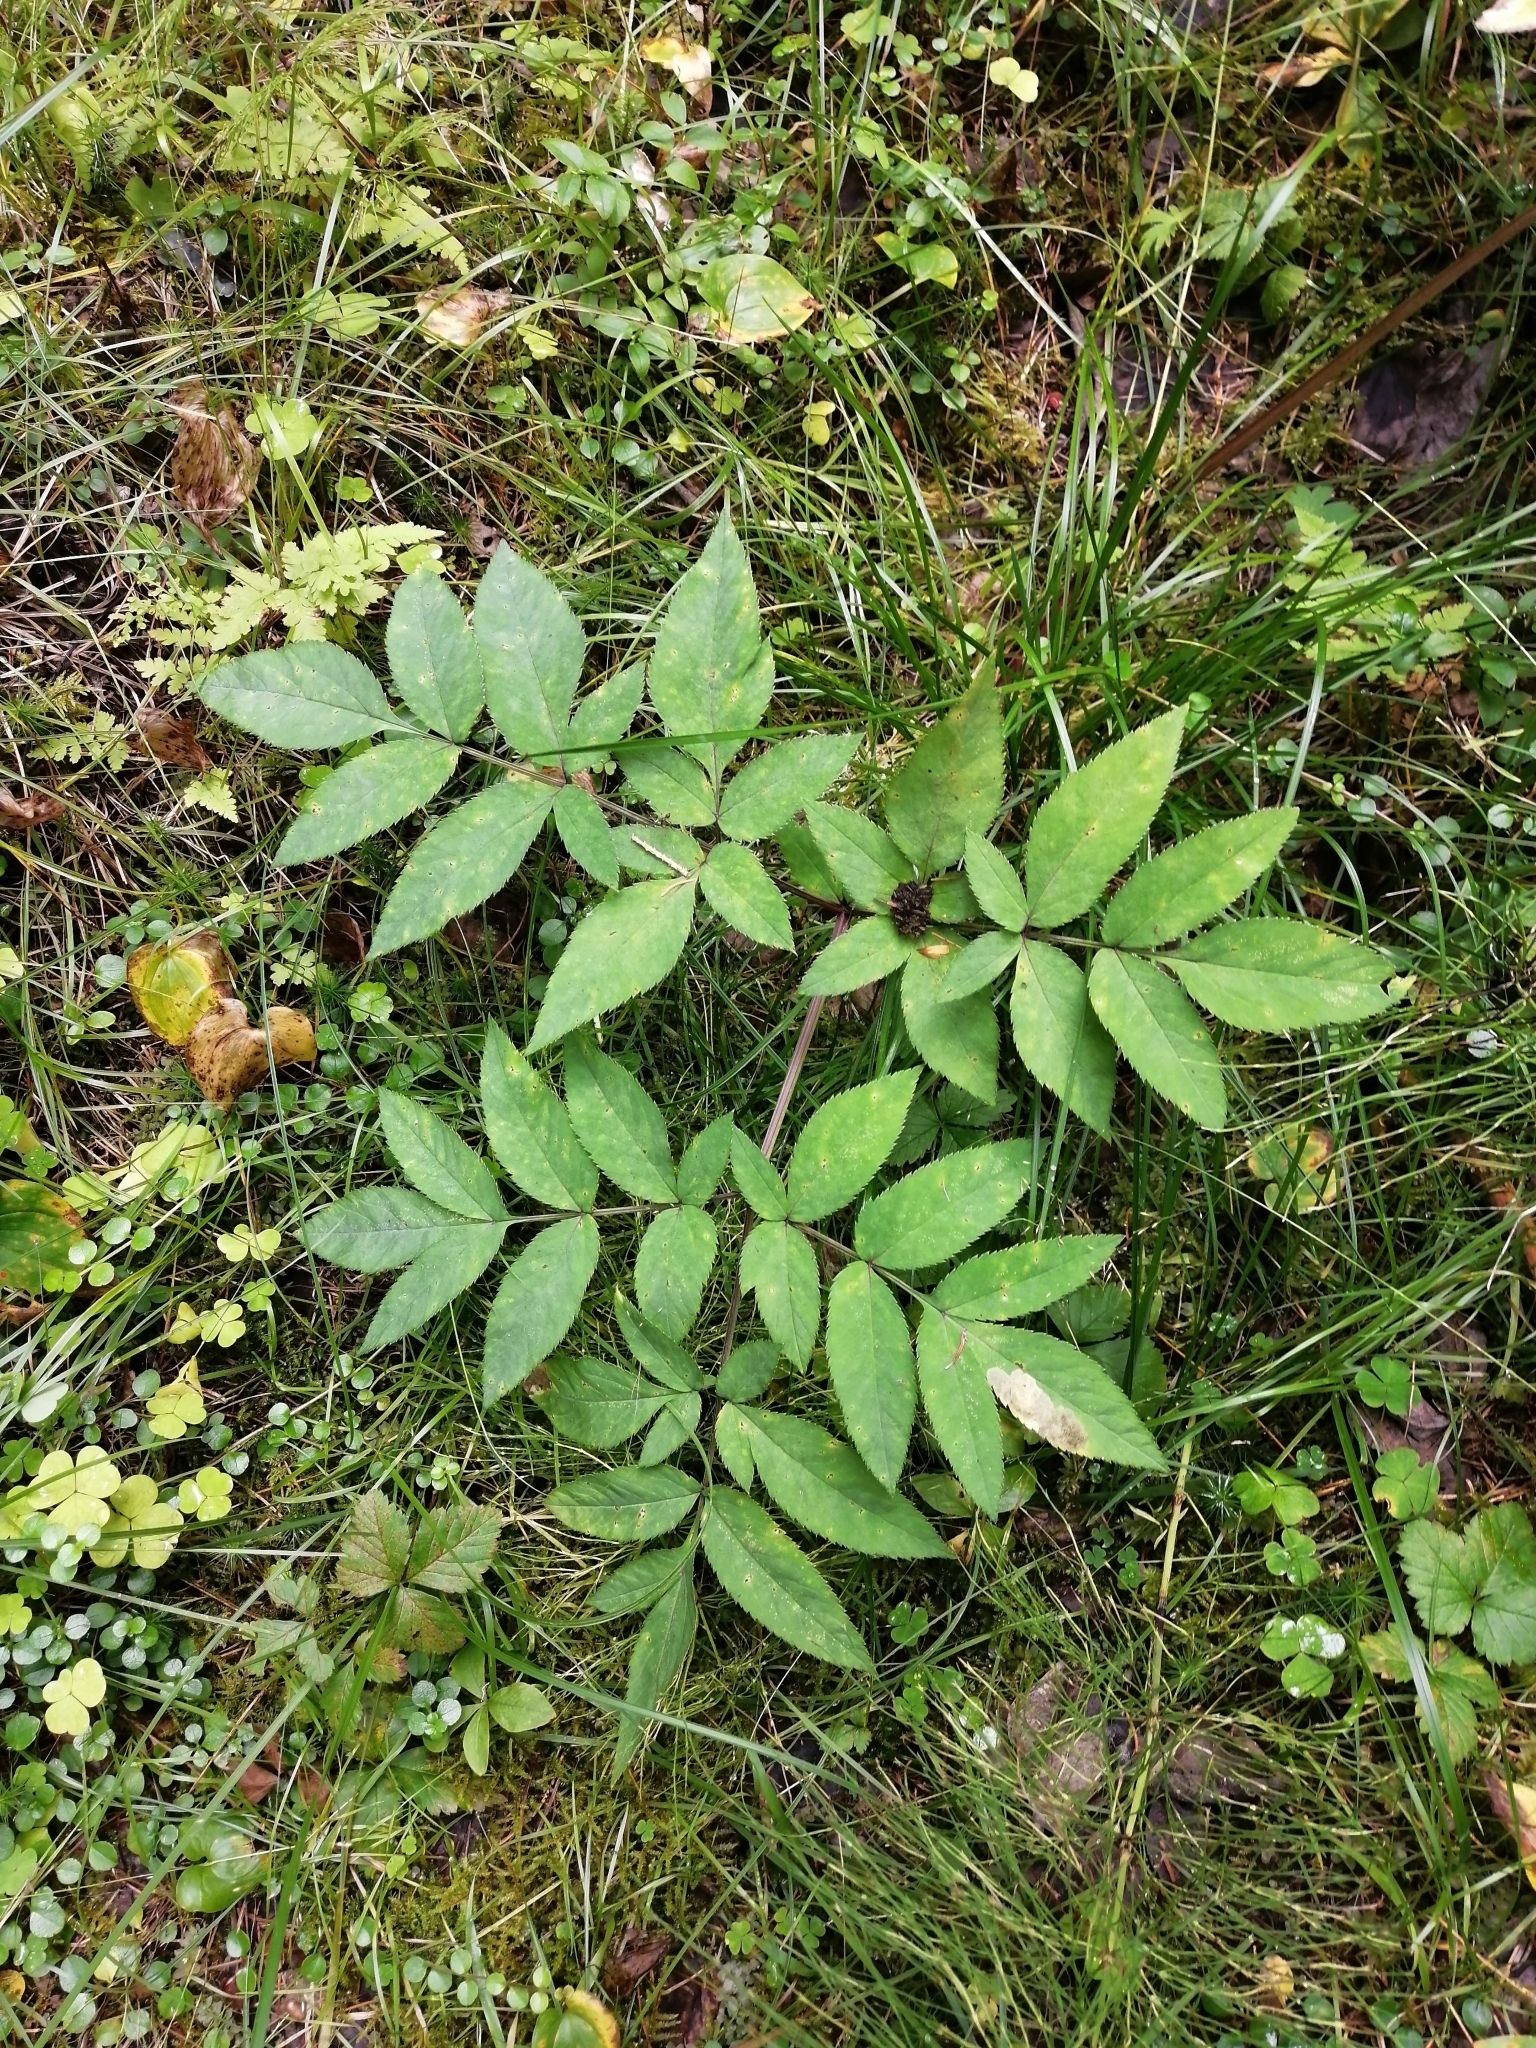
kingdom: Plantae
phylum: Tracheophyta
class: Magnoliopsida
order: Apiales
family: Apiaceae
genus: Angelica
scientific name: Angelica sylvestris
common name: Wild angelica
